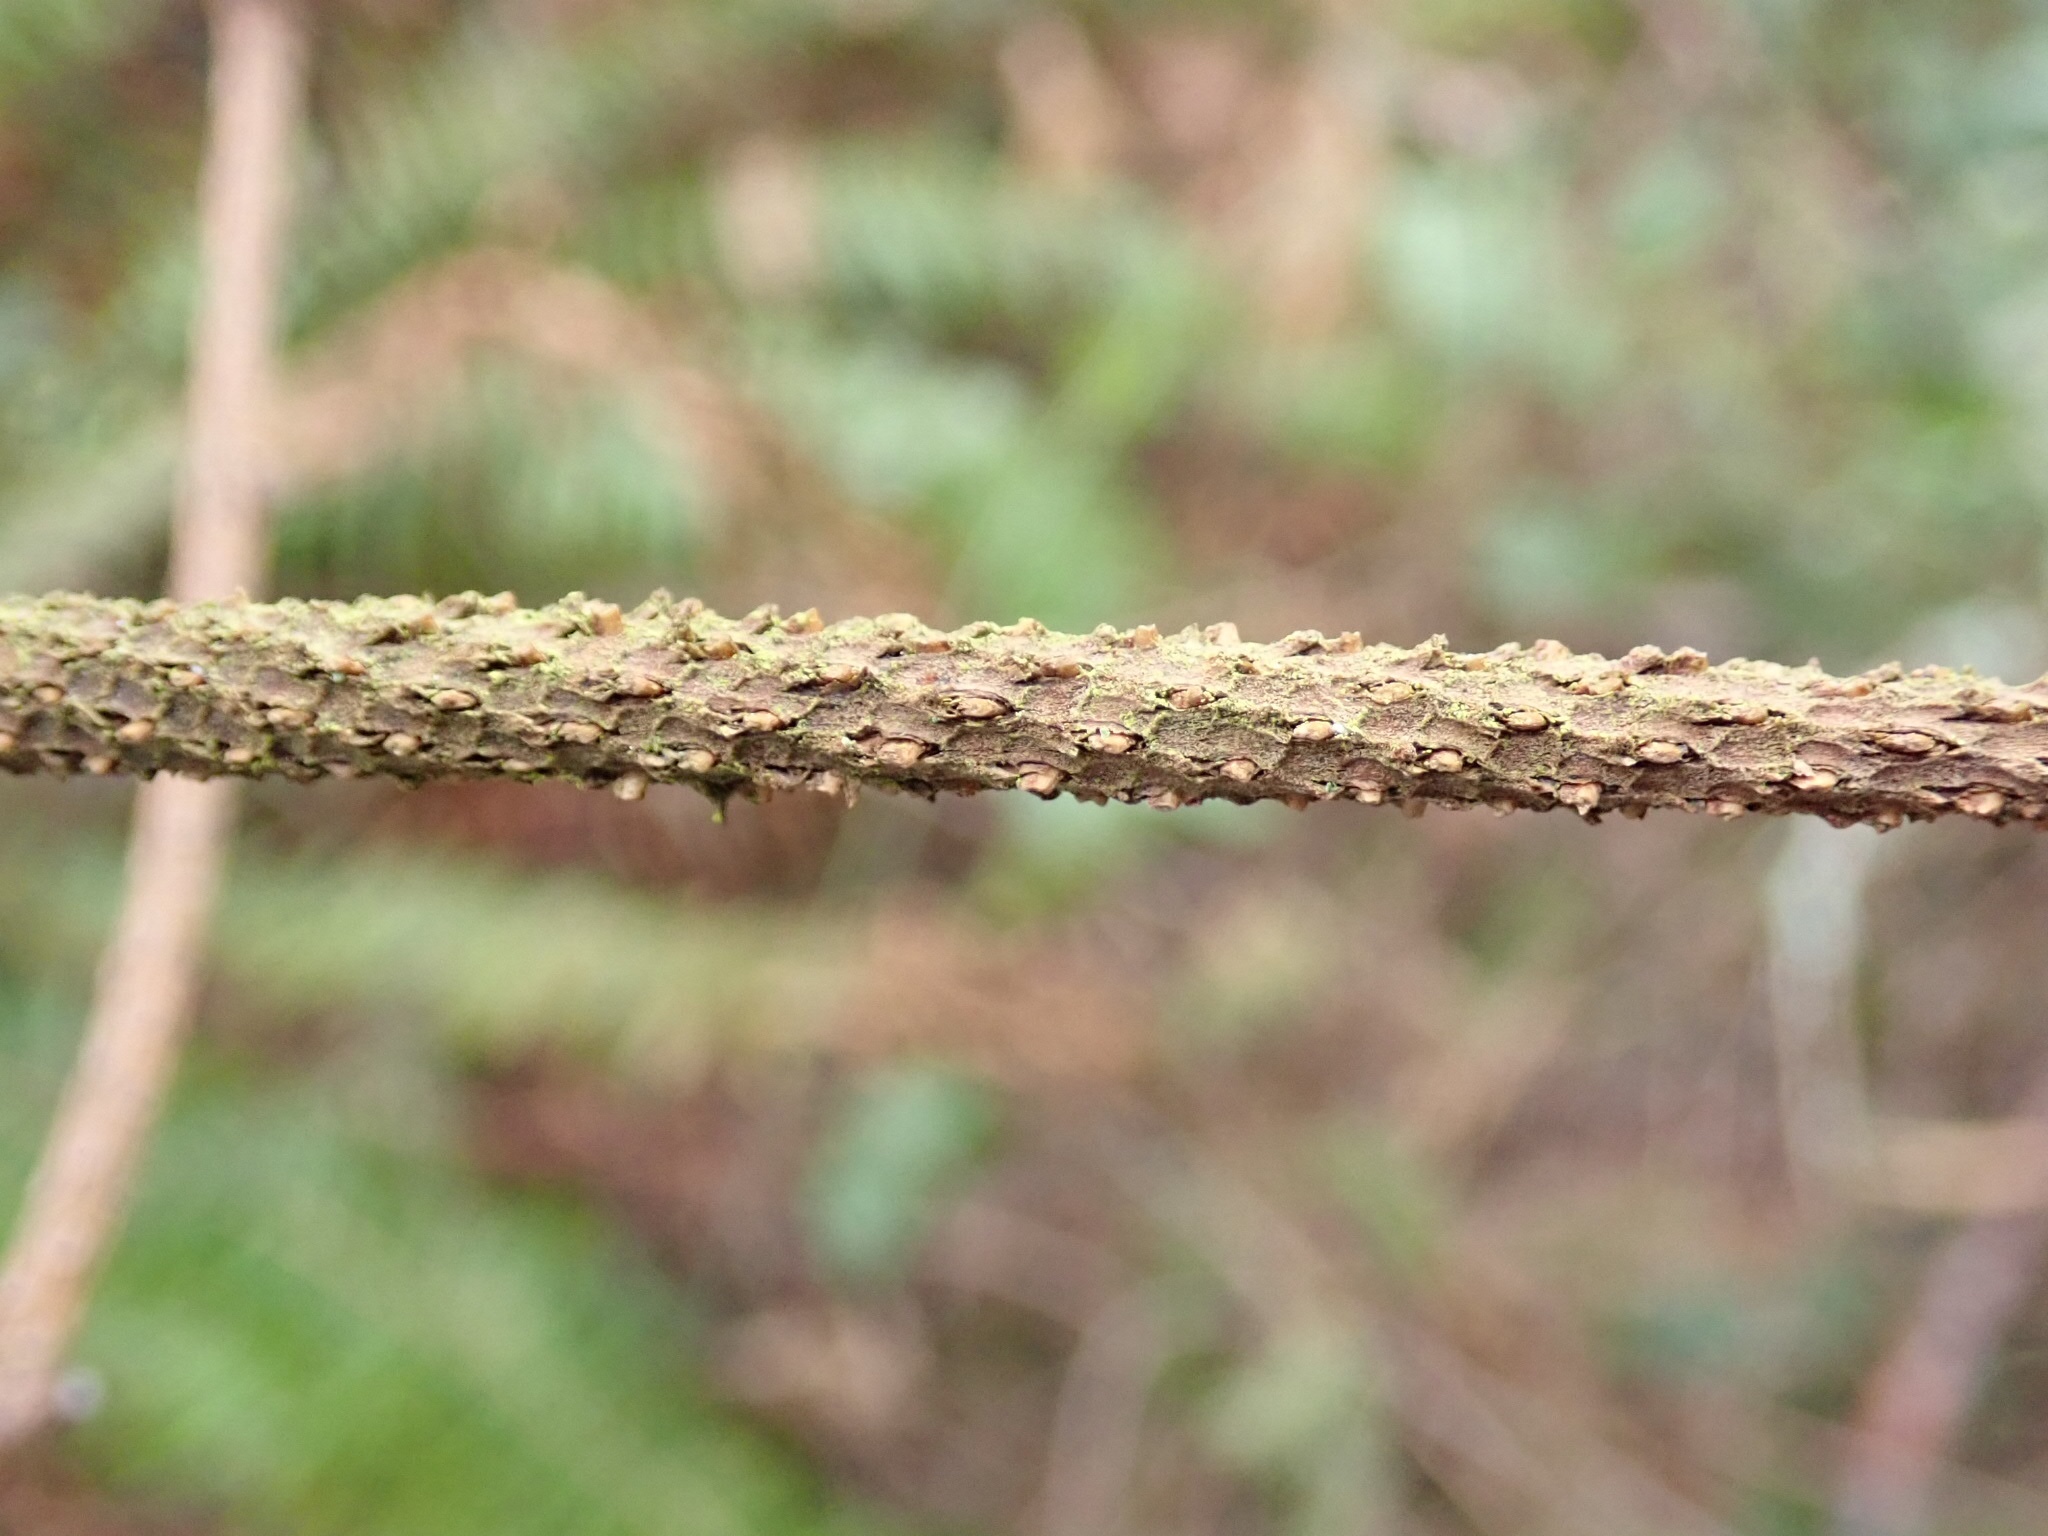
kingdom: Plantae
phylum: Tracheophyta
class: Pinopsida
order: Pinales
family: Pinaceae
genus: Abies
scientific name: Abies grandis
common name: Giant fir
